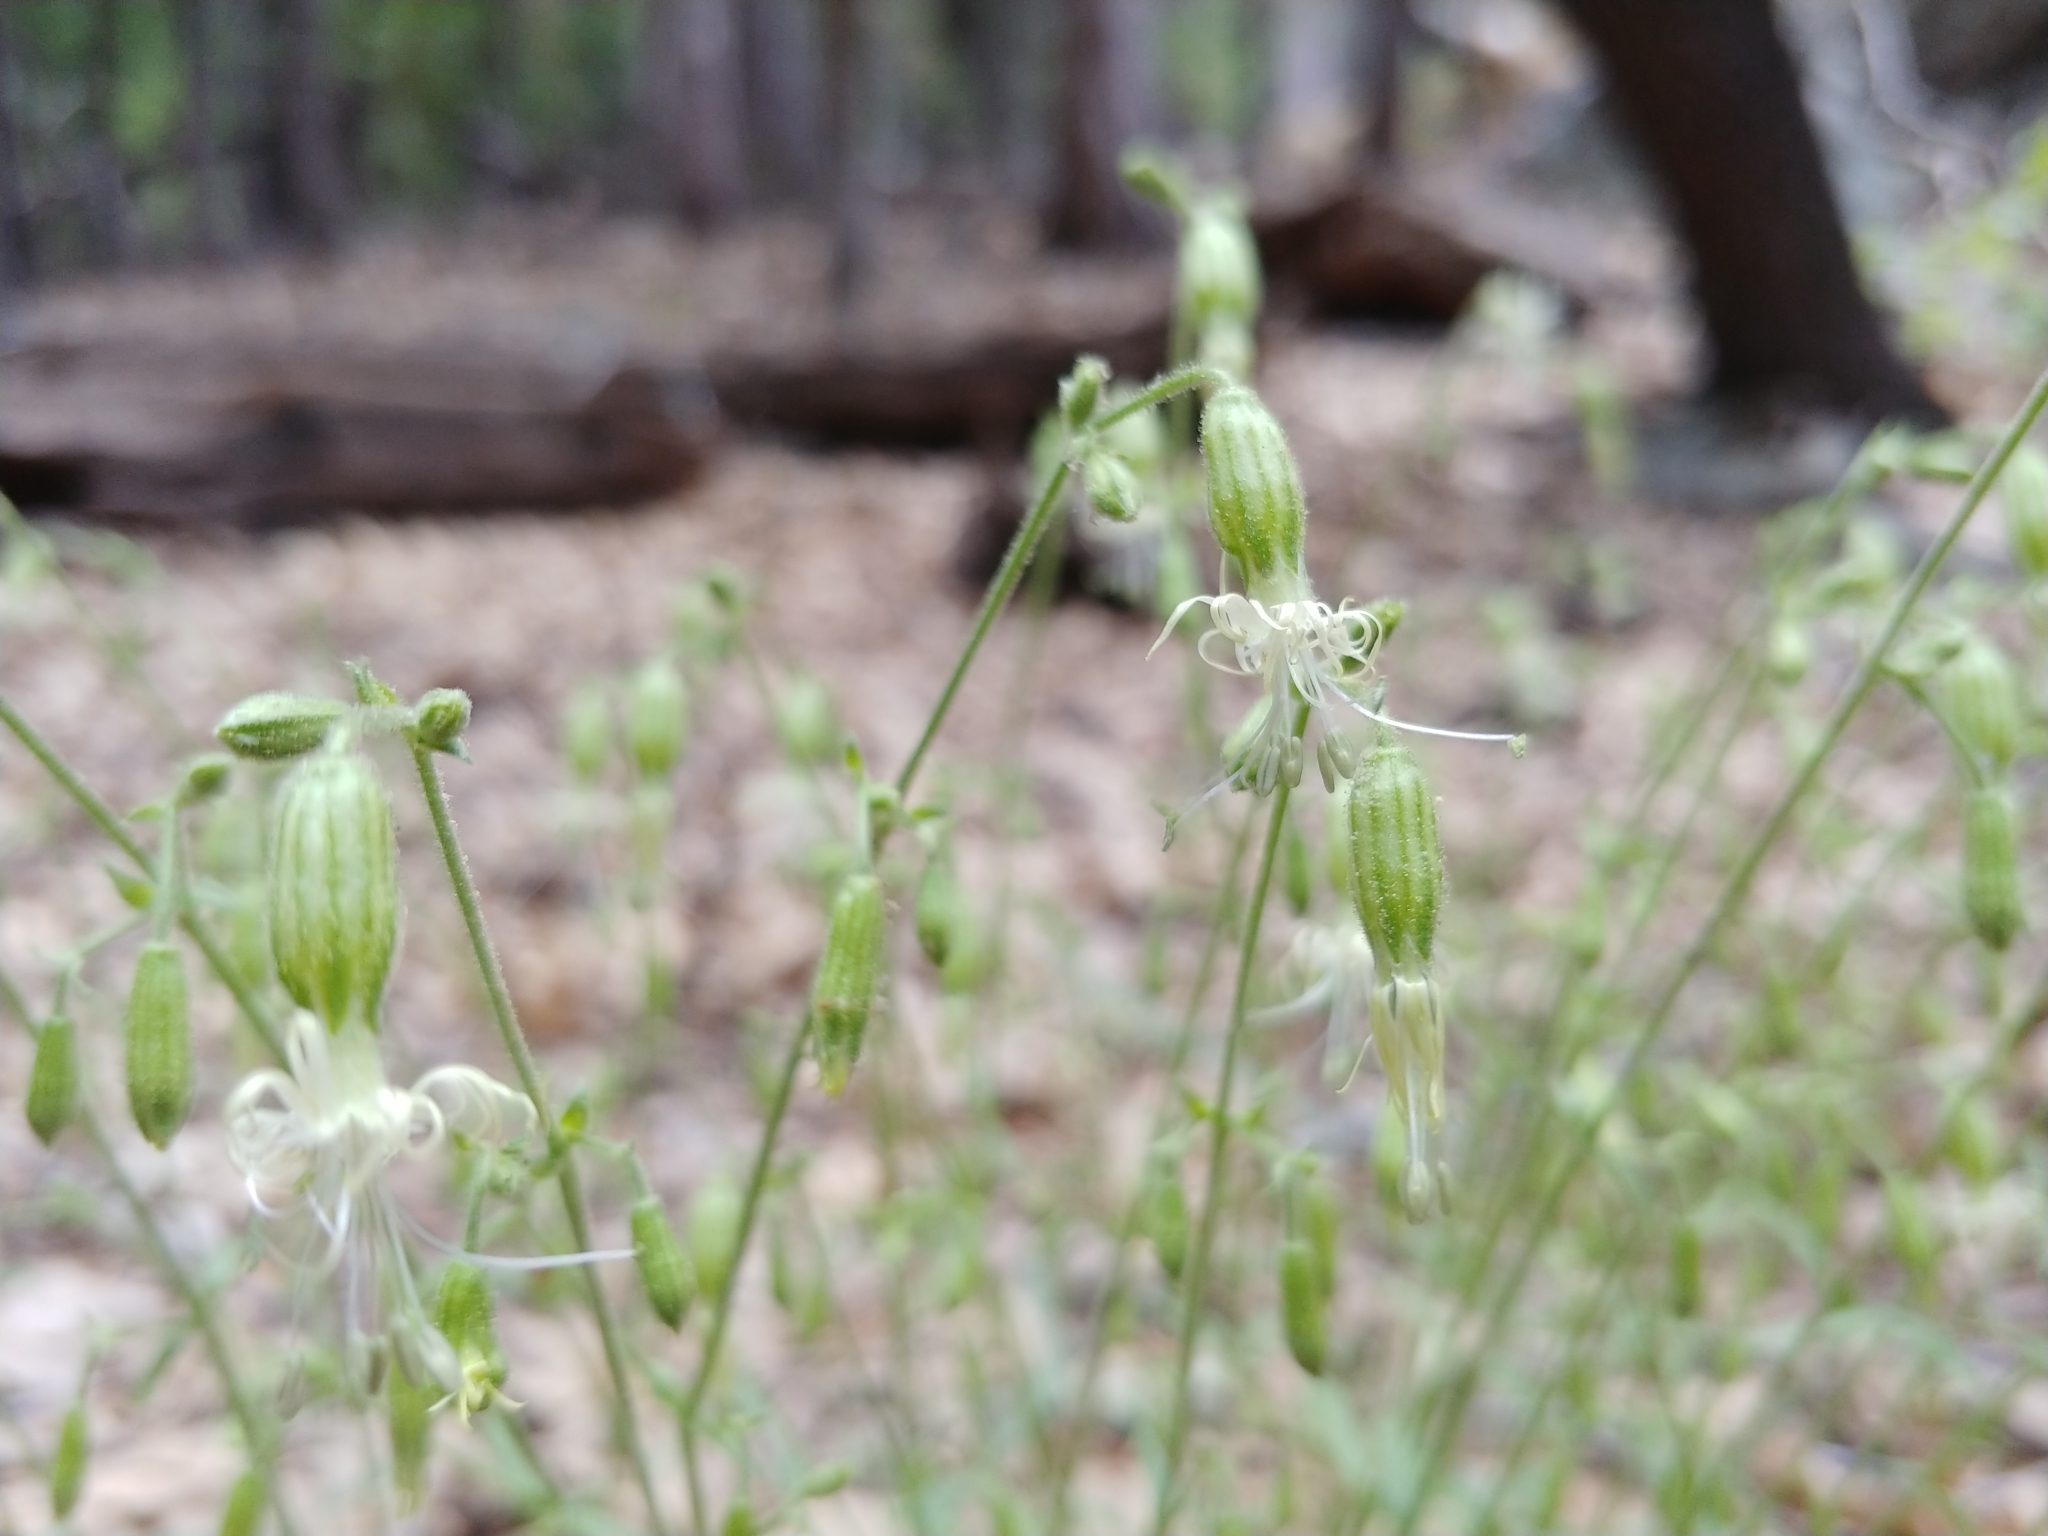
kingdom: Plantae
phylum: Tracheophyta
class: Magnoliopsida
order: Caryophyllales
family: Caryophyllaceae
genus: Silene
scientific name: Silene lemmonii
